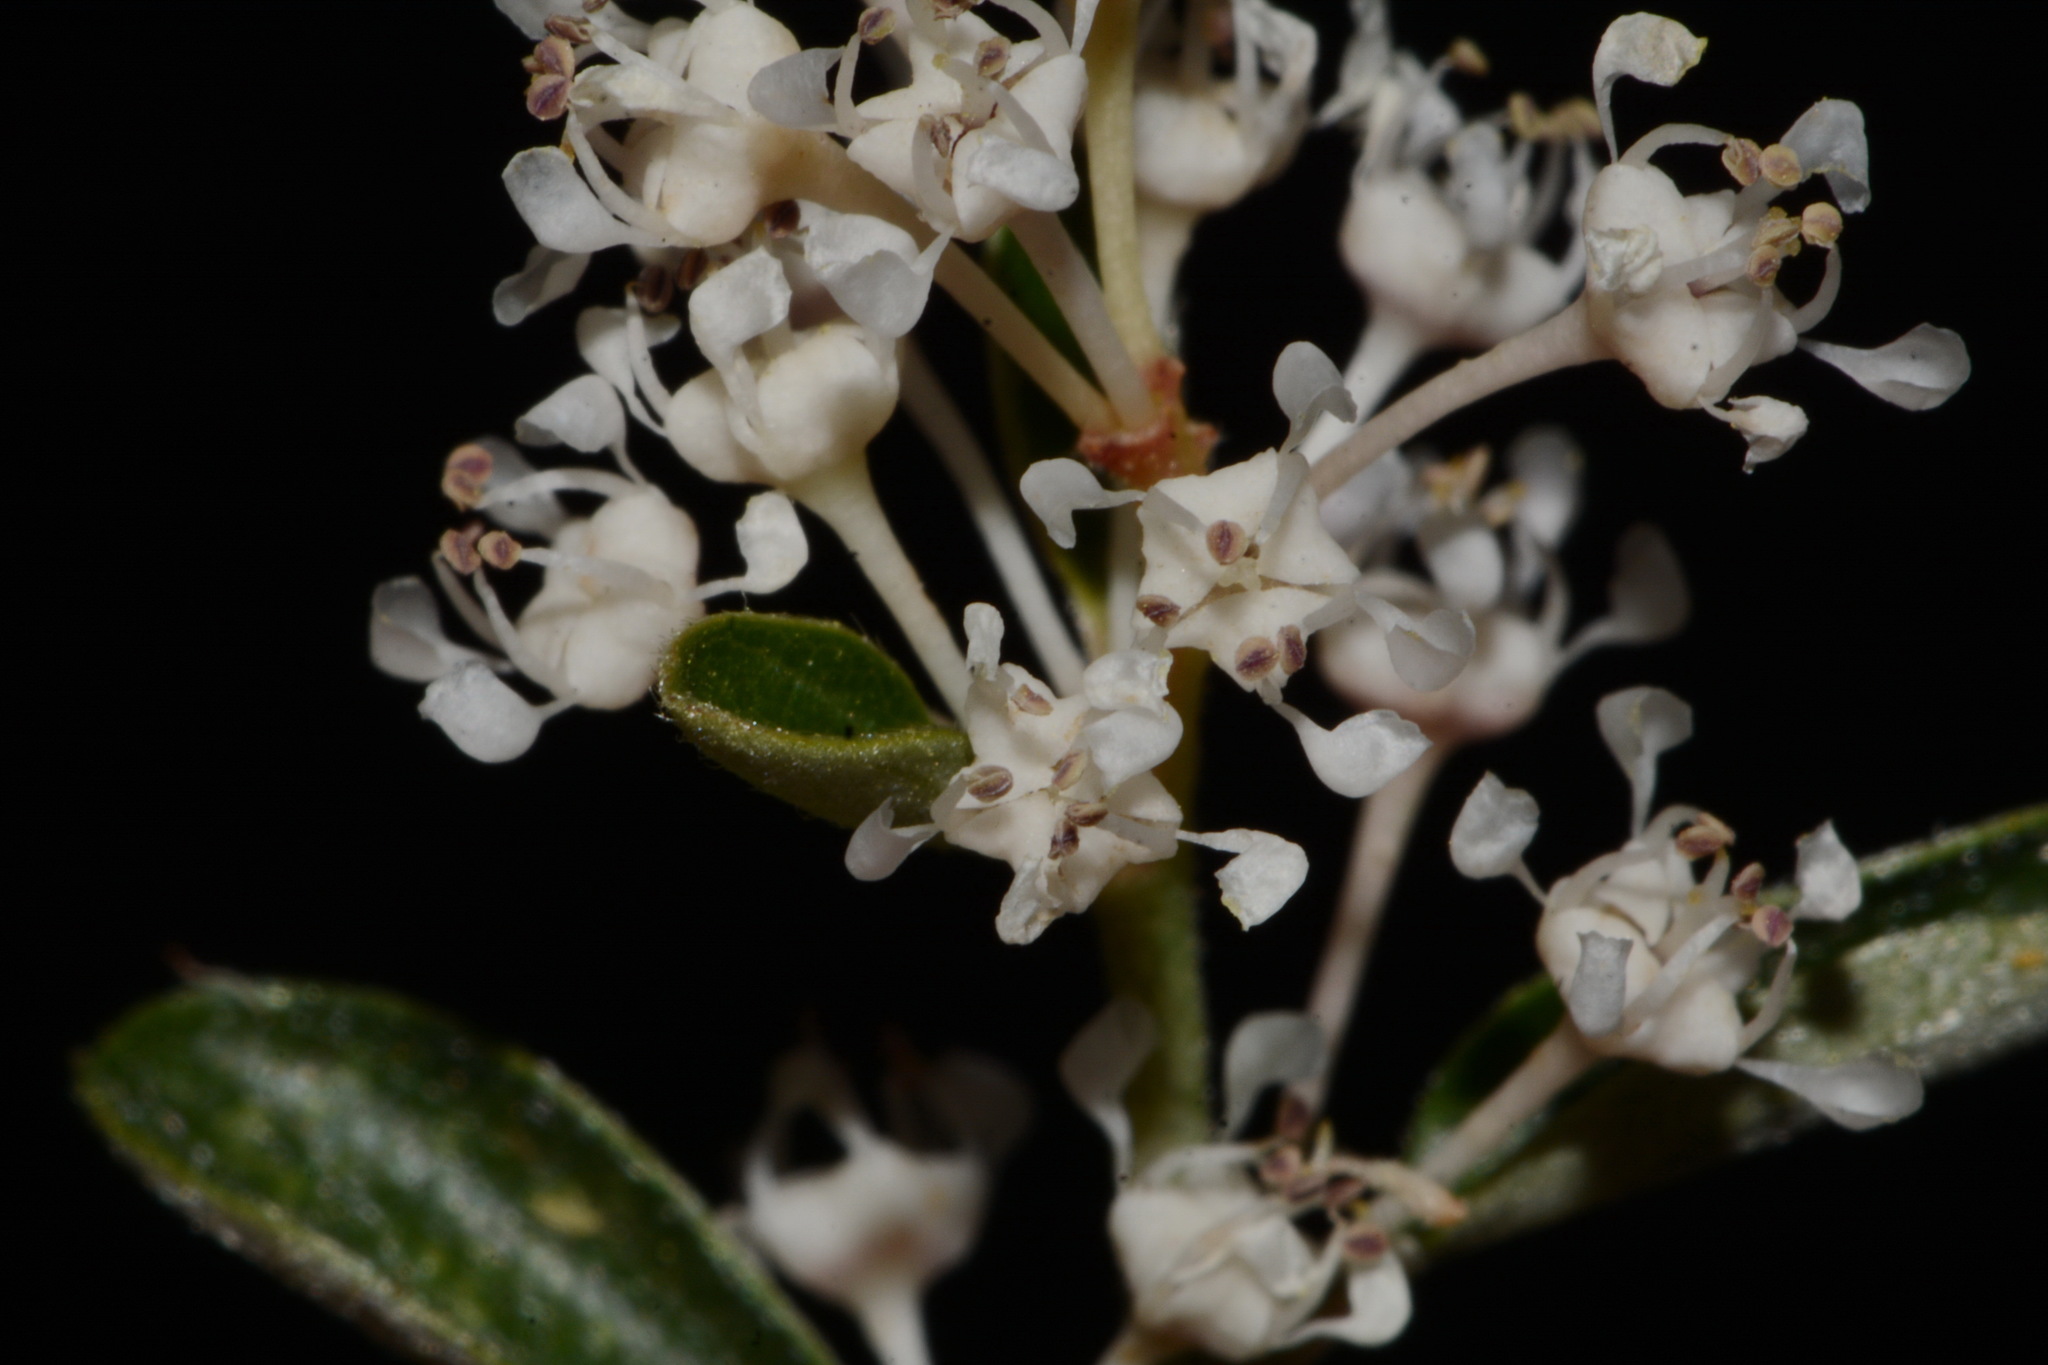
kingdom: Plantae
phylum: Tracheophyta
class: Magnoliopsida
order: Rosales
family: Rhamnaceae
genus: Ceanothus
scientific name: Ceanothus fendleri
